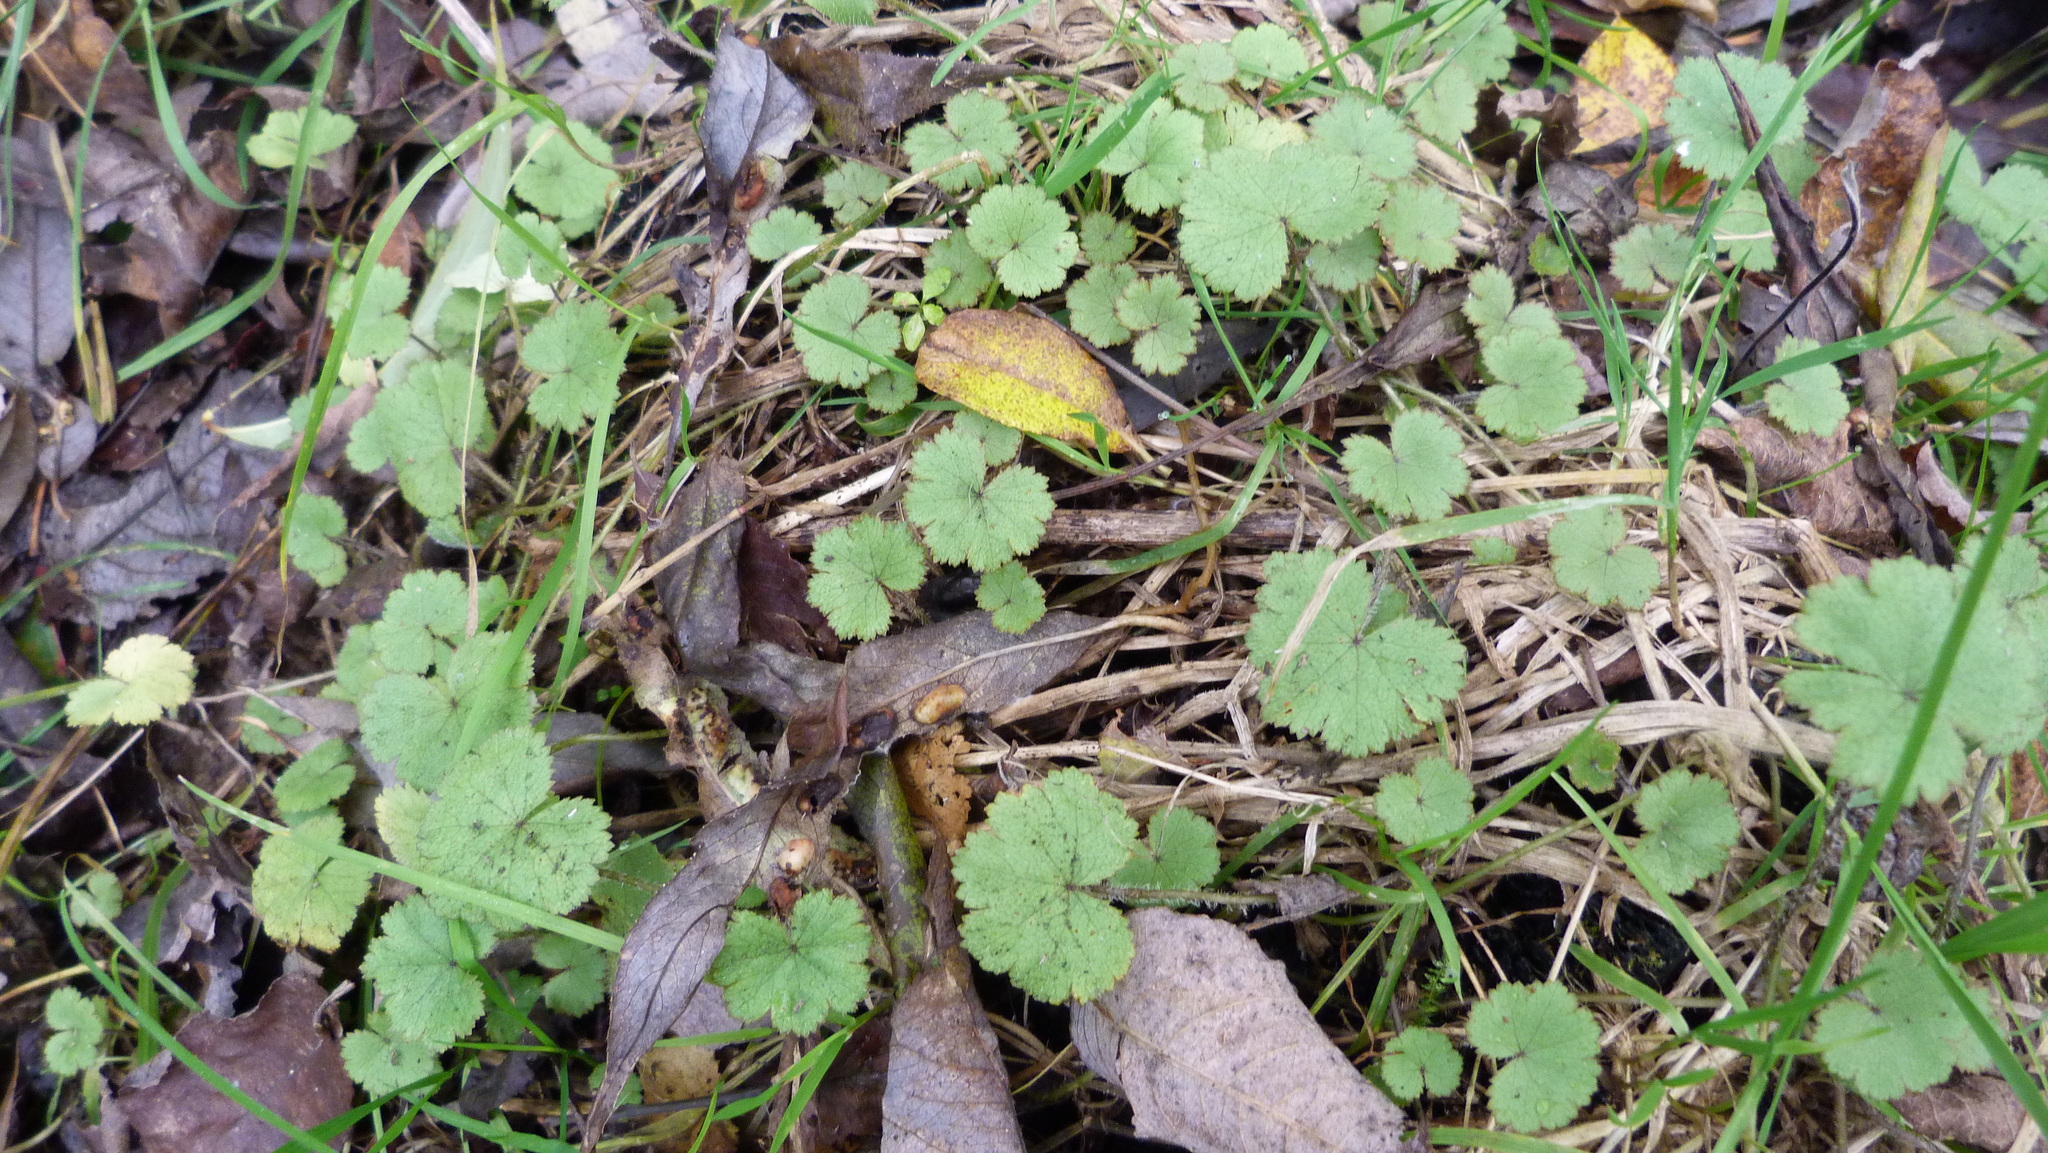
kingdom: Plantae
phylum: Tracheophyta
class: Magnoliopsida
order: Apiales
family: Araliaceae
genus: Hydrocotyle
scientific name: Hydrocotyle moschata
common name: Hairy pennywort
